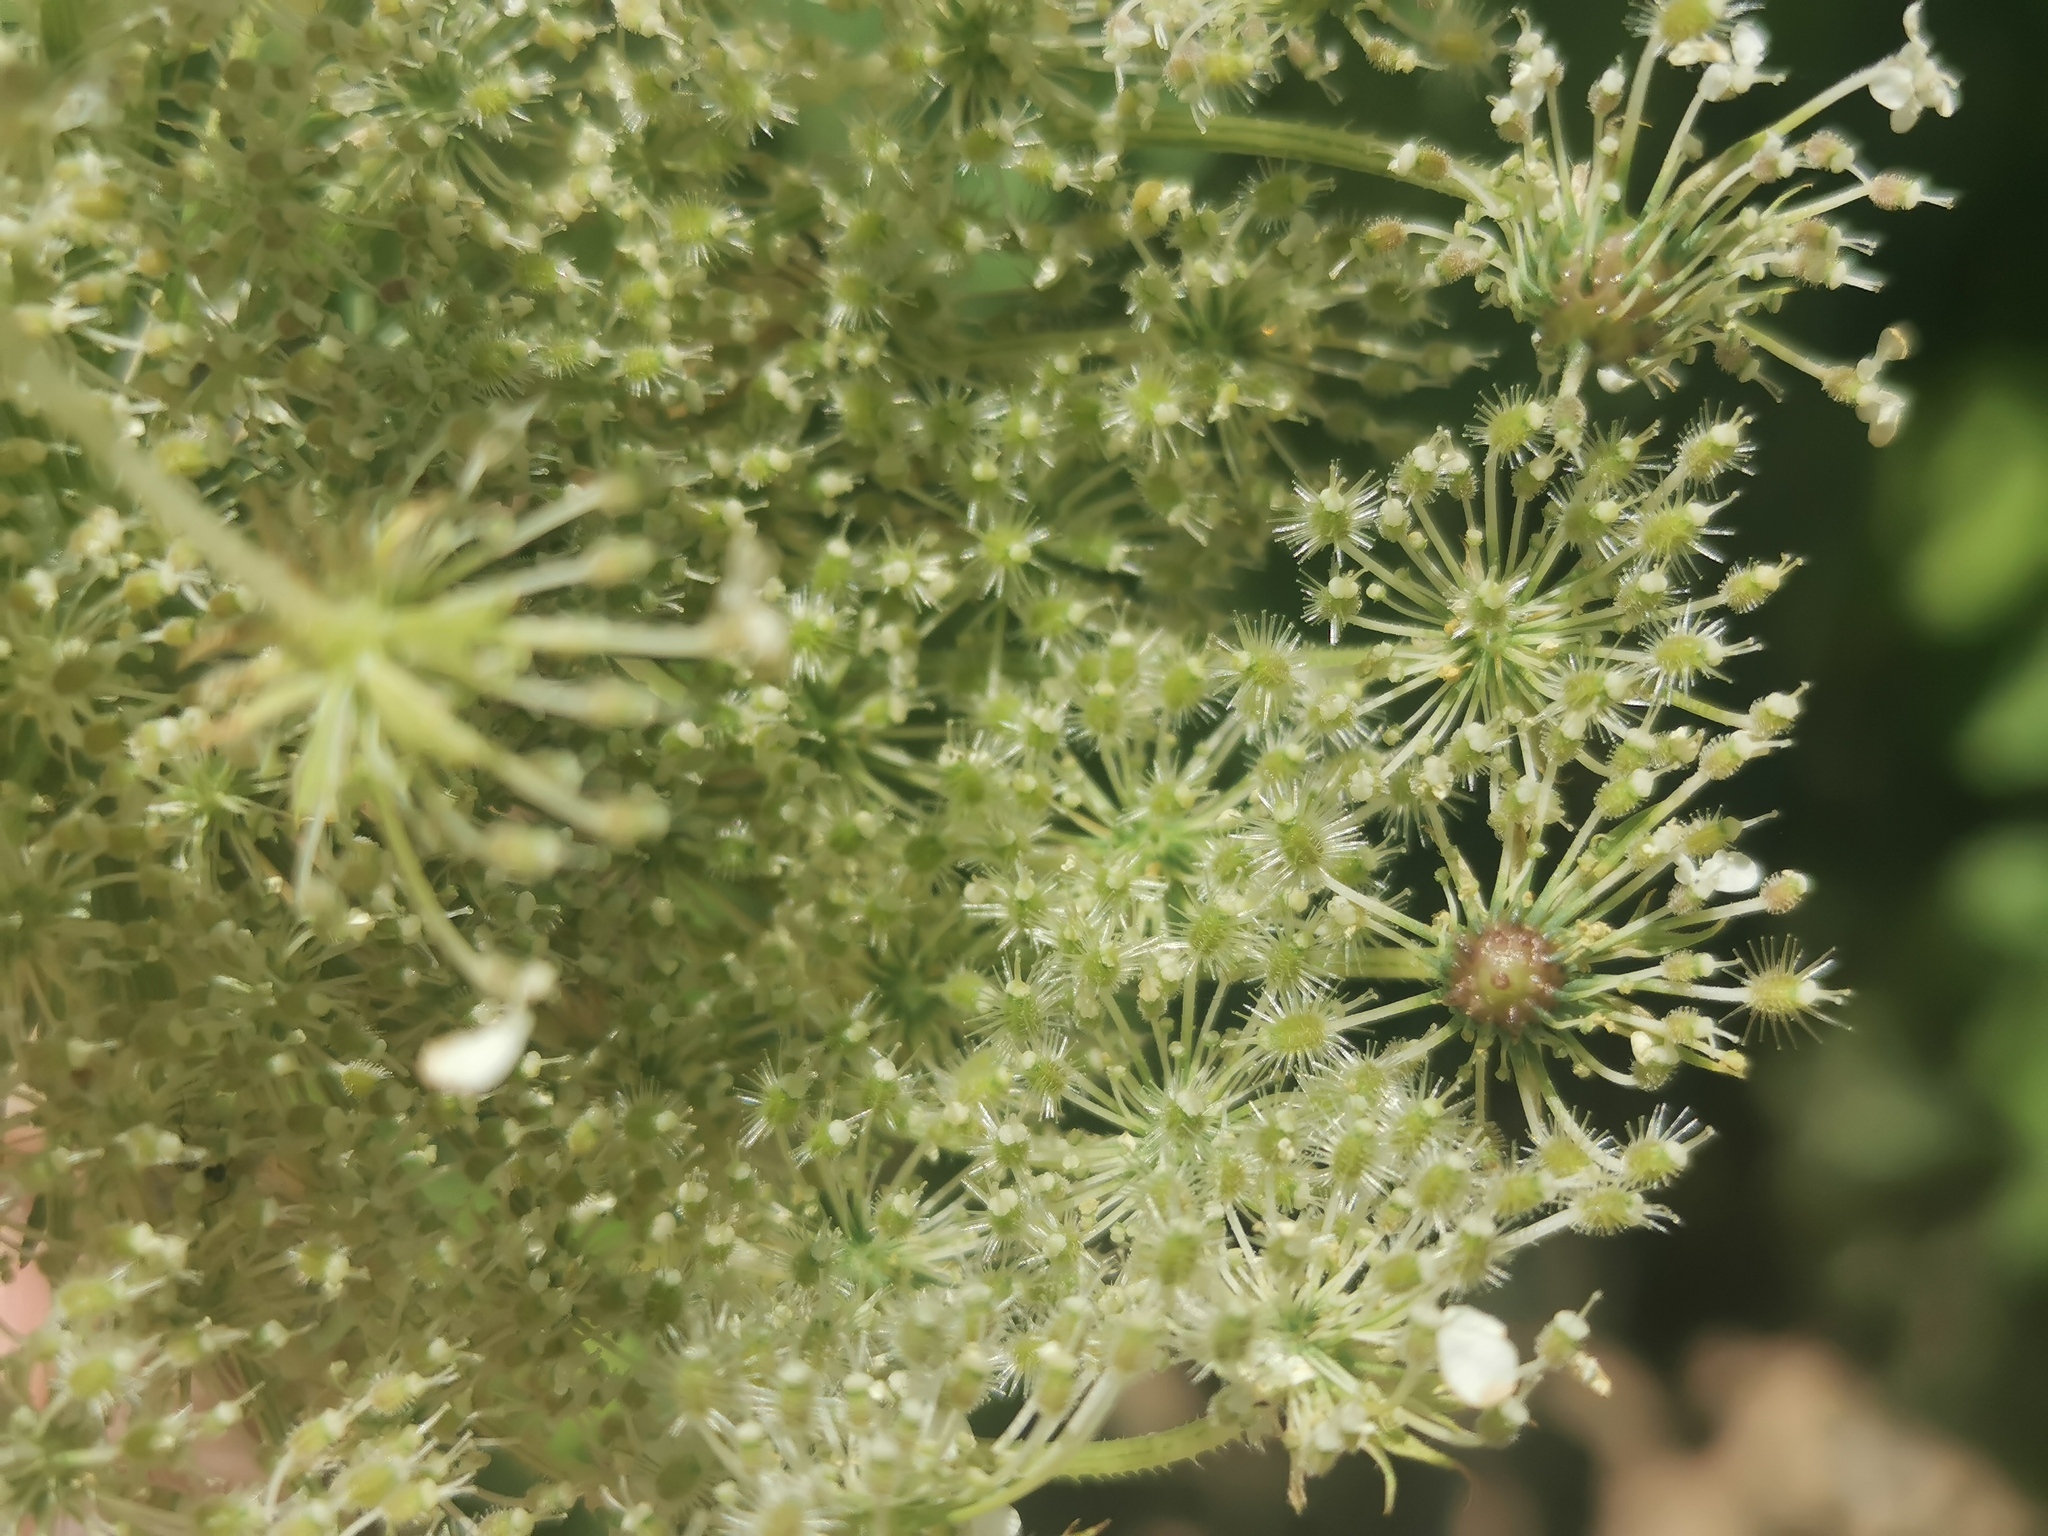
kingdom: Animalia
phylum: Arthropoda
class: Insecta
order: Diptera
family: Cecidomyiidae
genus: Lasioptera
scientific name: Lasioptera carophila
